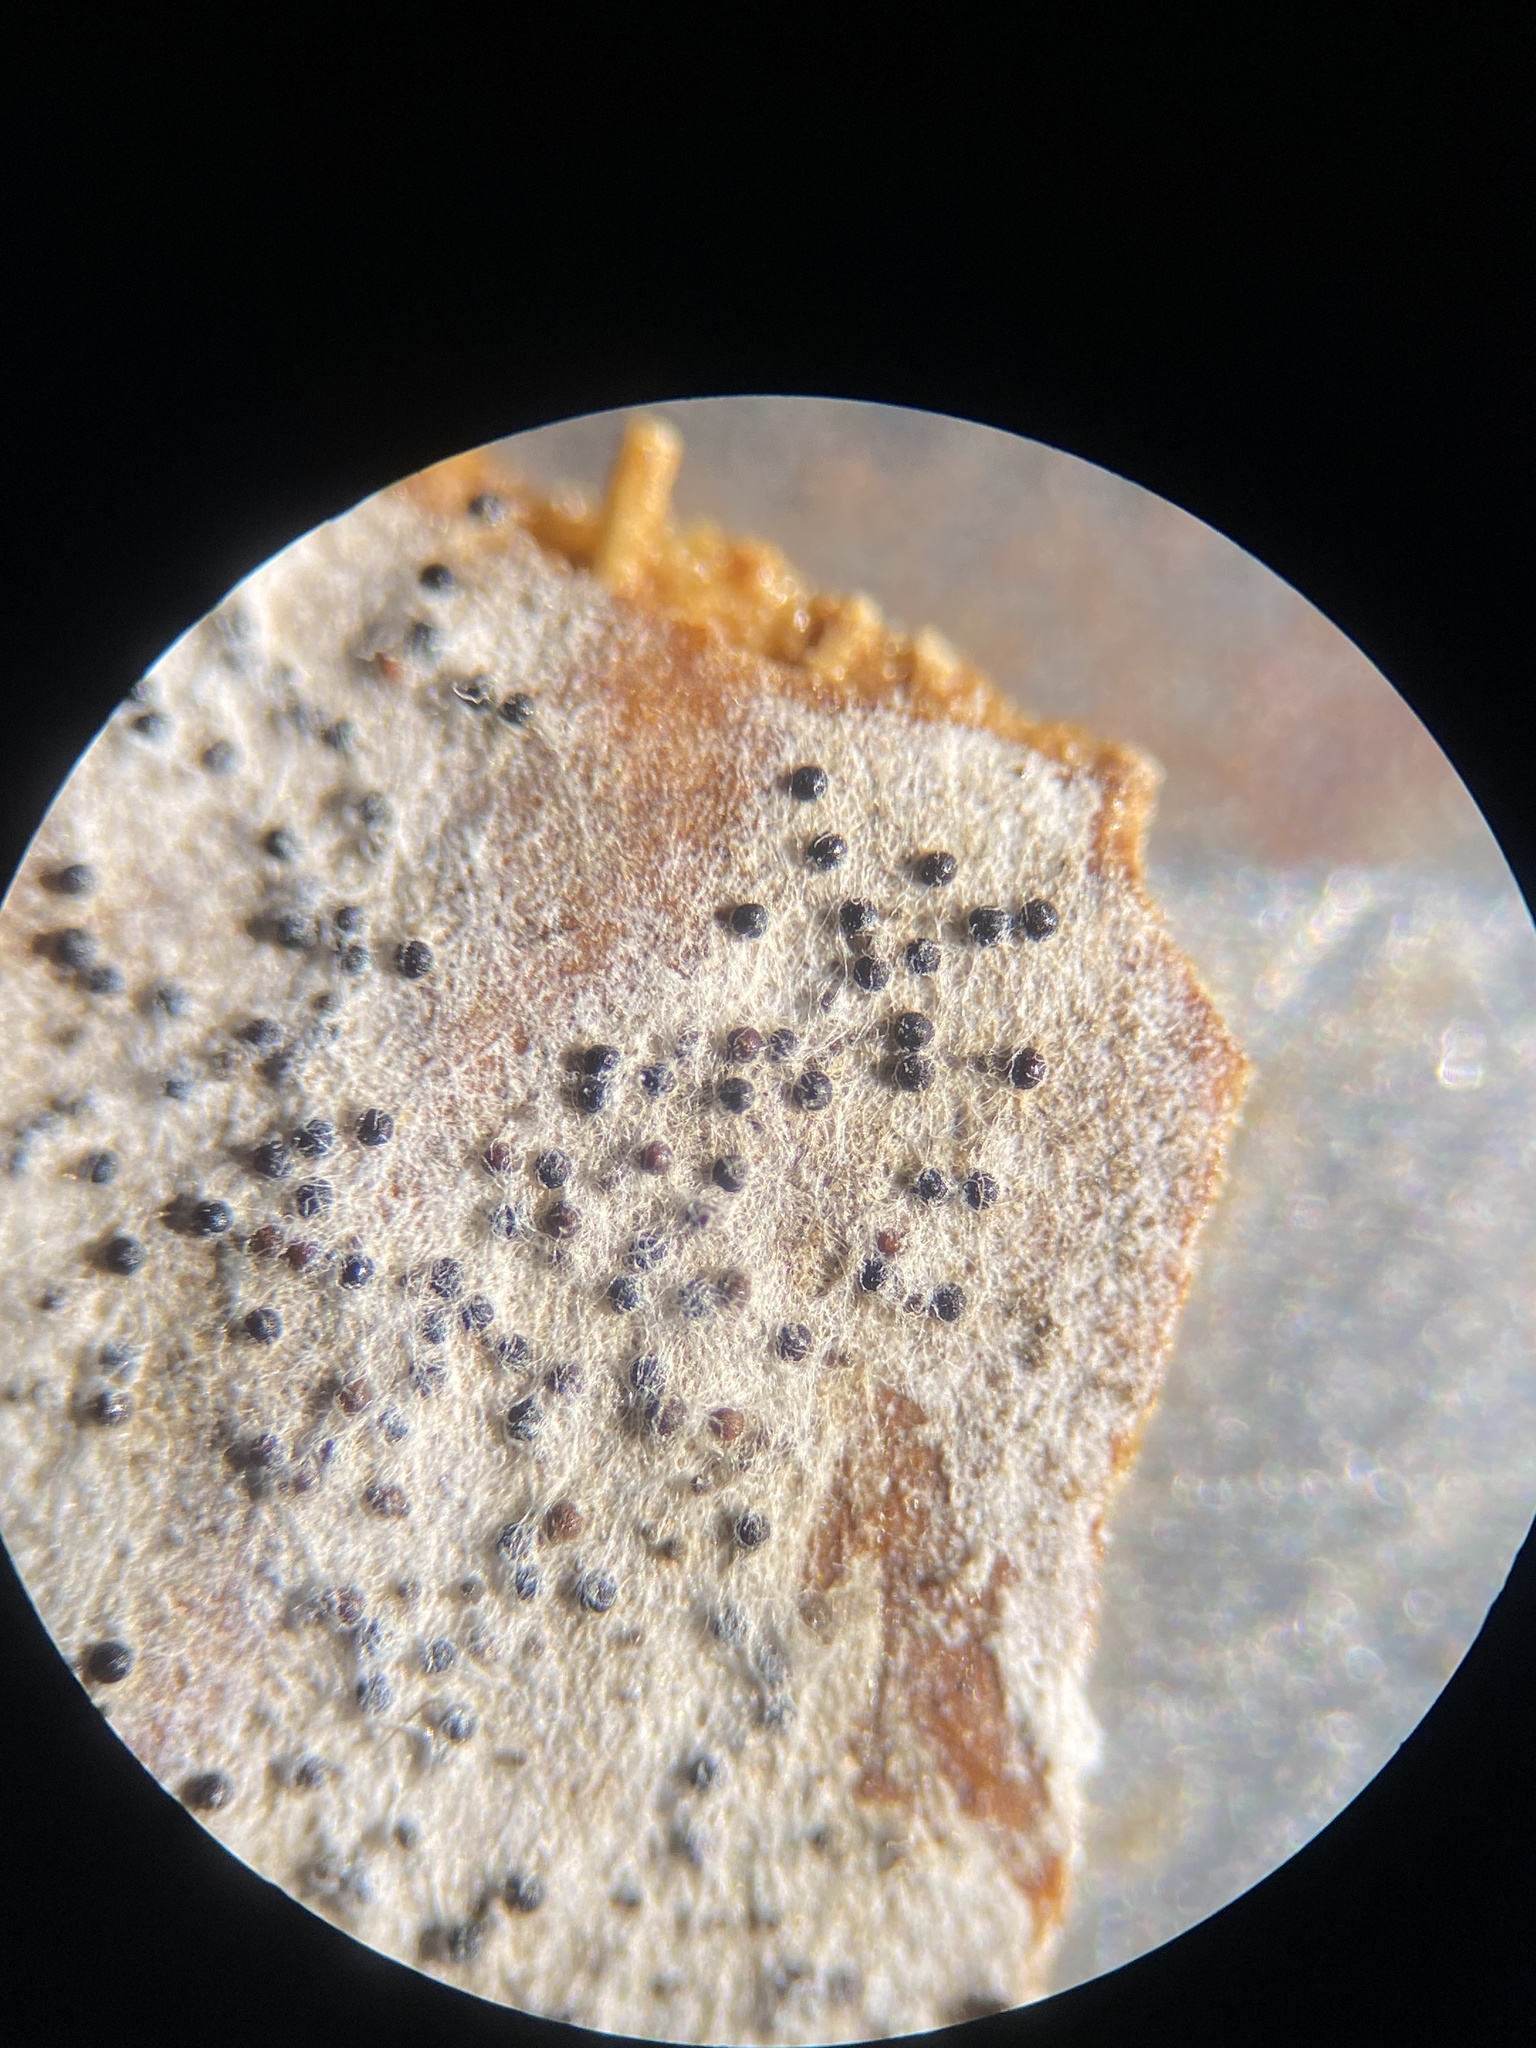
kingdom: Fungi
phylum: Ascomycota
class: Leotiomycetes
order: Helotiales
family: Erysiphaceae
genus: Erysiphe
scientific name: Erysiphe liriodendri
